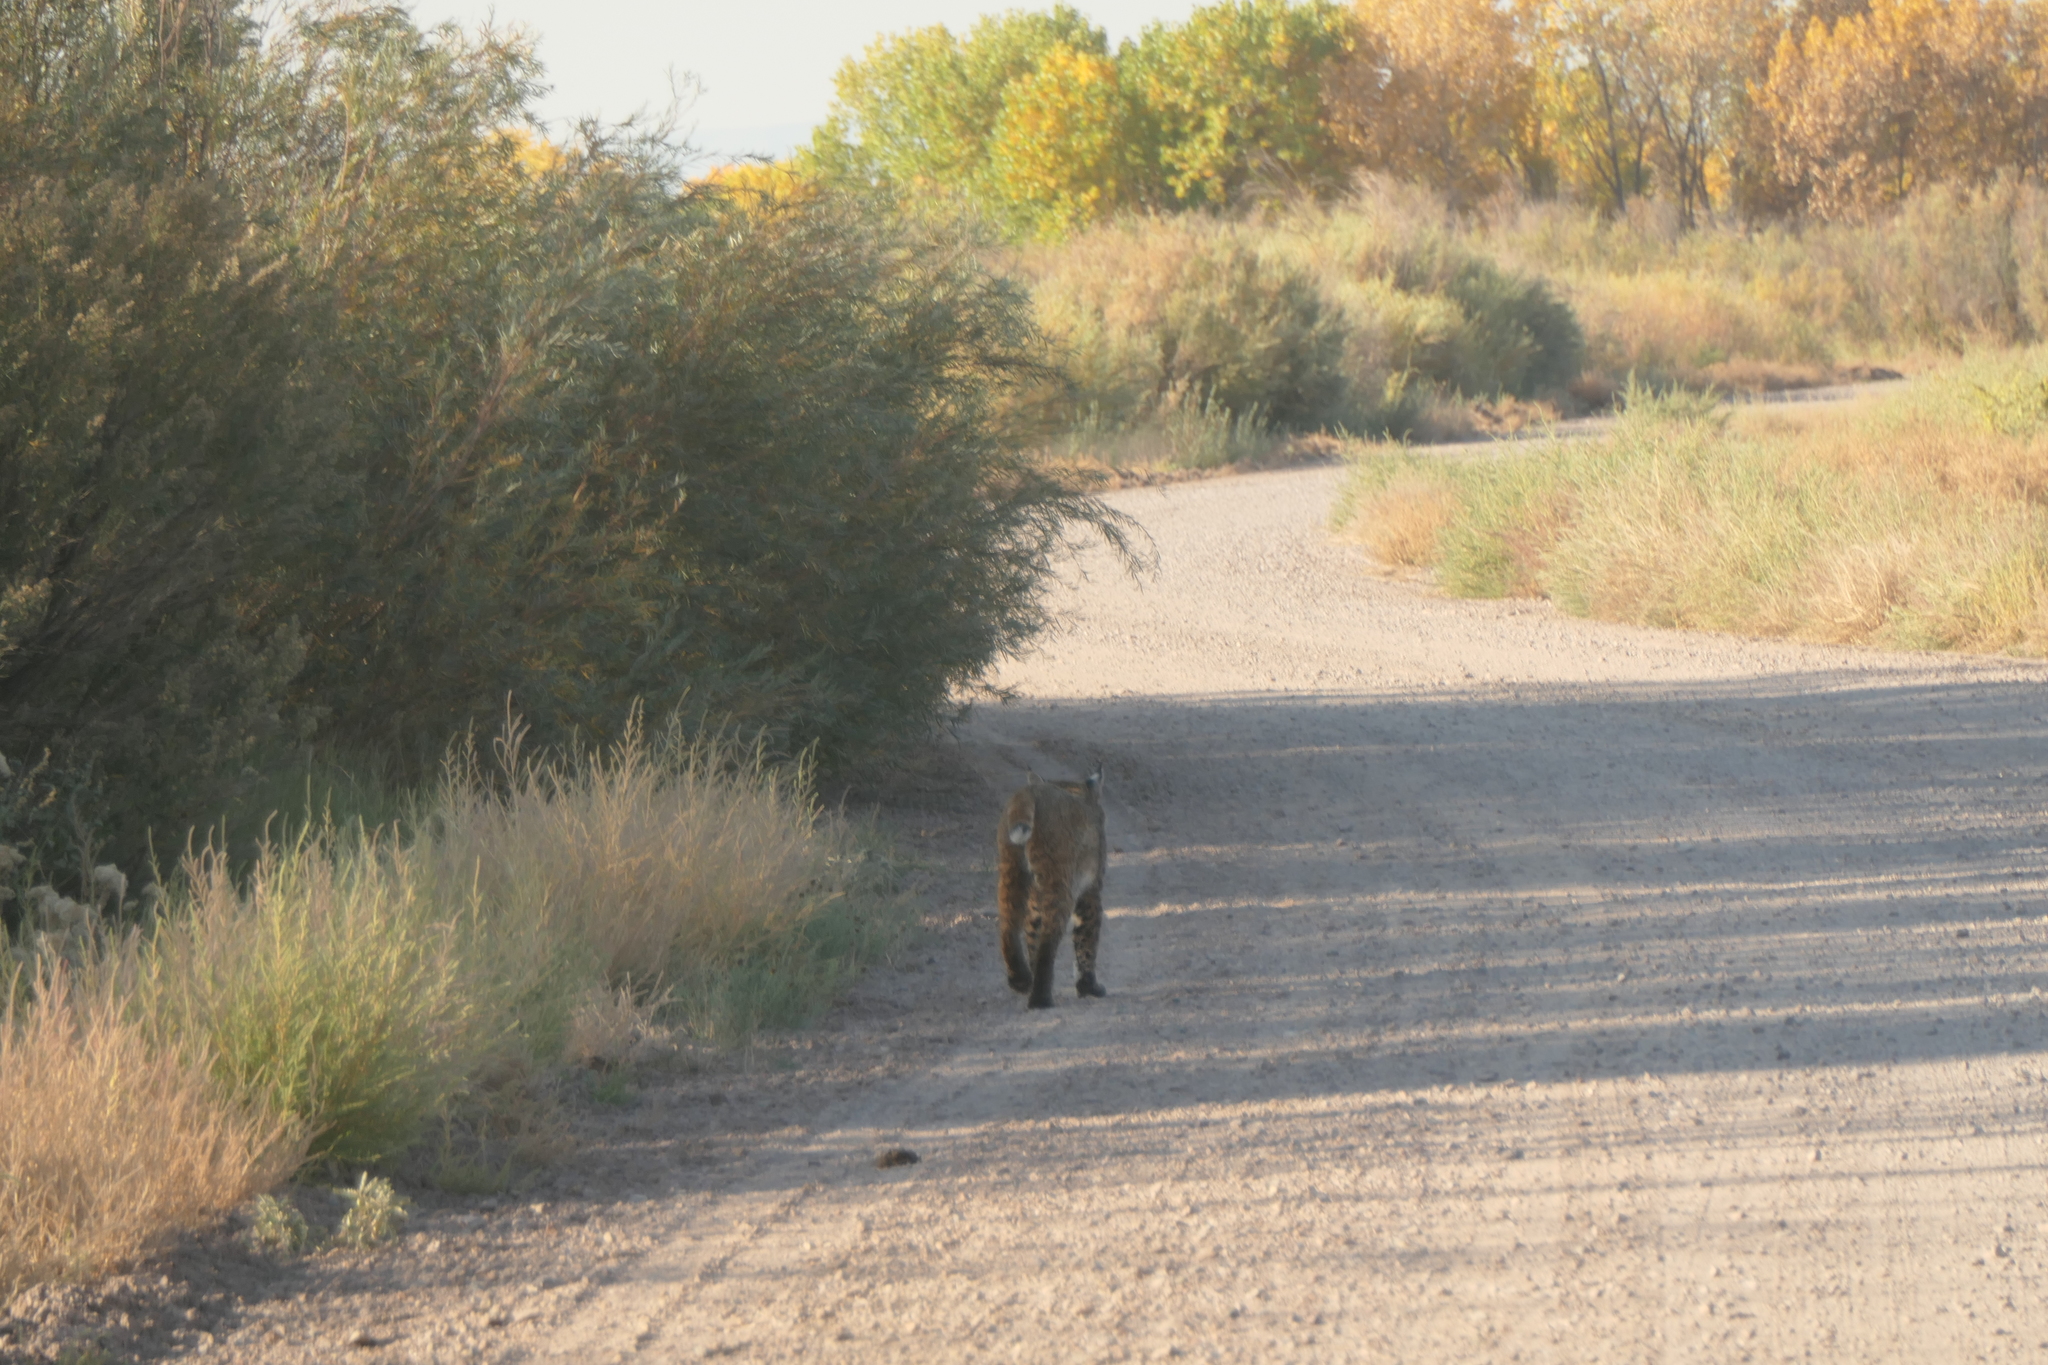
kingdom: Animalia
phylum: Chordata
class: Mammalia
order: Carnivora
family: Felidae
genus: Lynx
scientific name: Lynx rufus
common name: Bobcat
